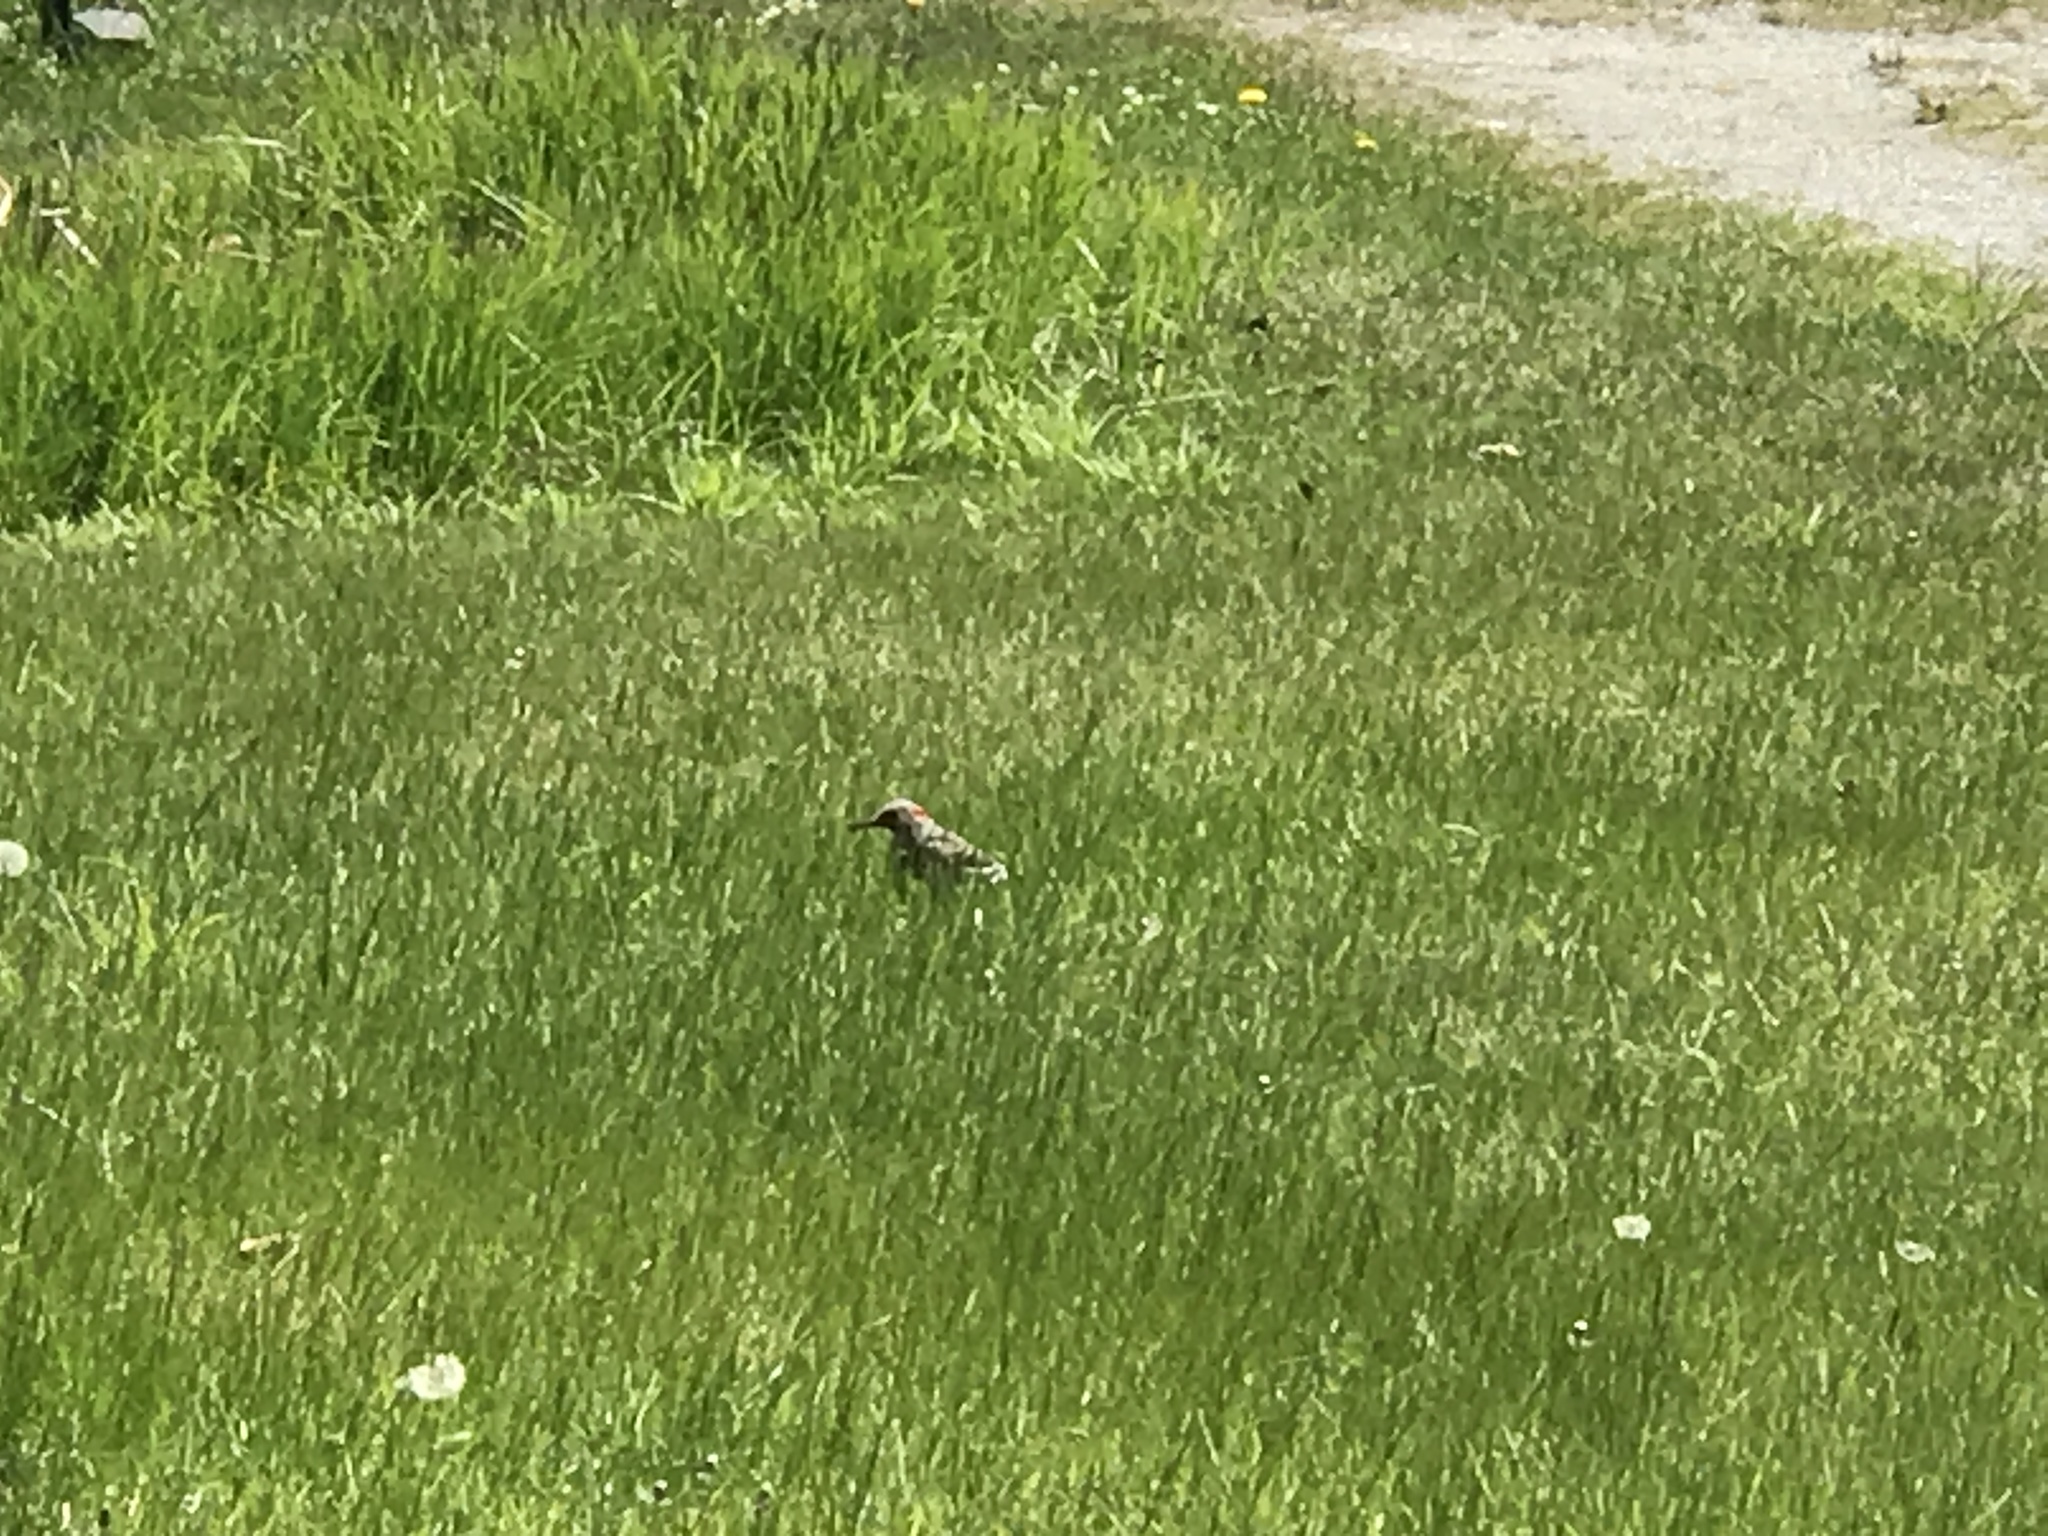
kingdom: Animalia
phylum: Chordata
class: Aves
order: Piciformes
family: Picidae
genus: Colaptes
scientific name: Colaptes auratus
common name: Northern flicker
